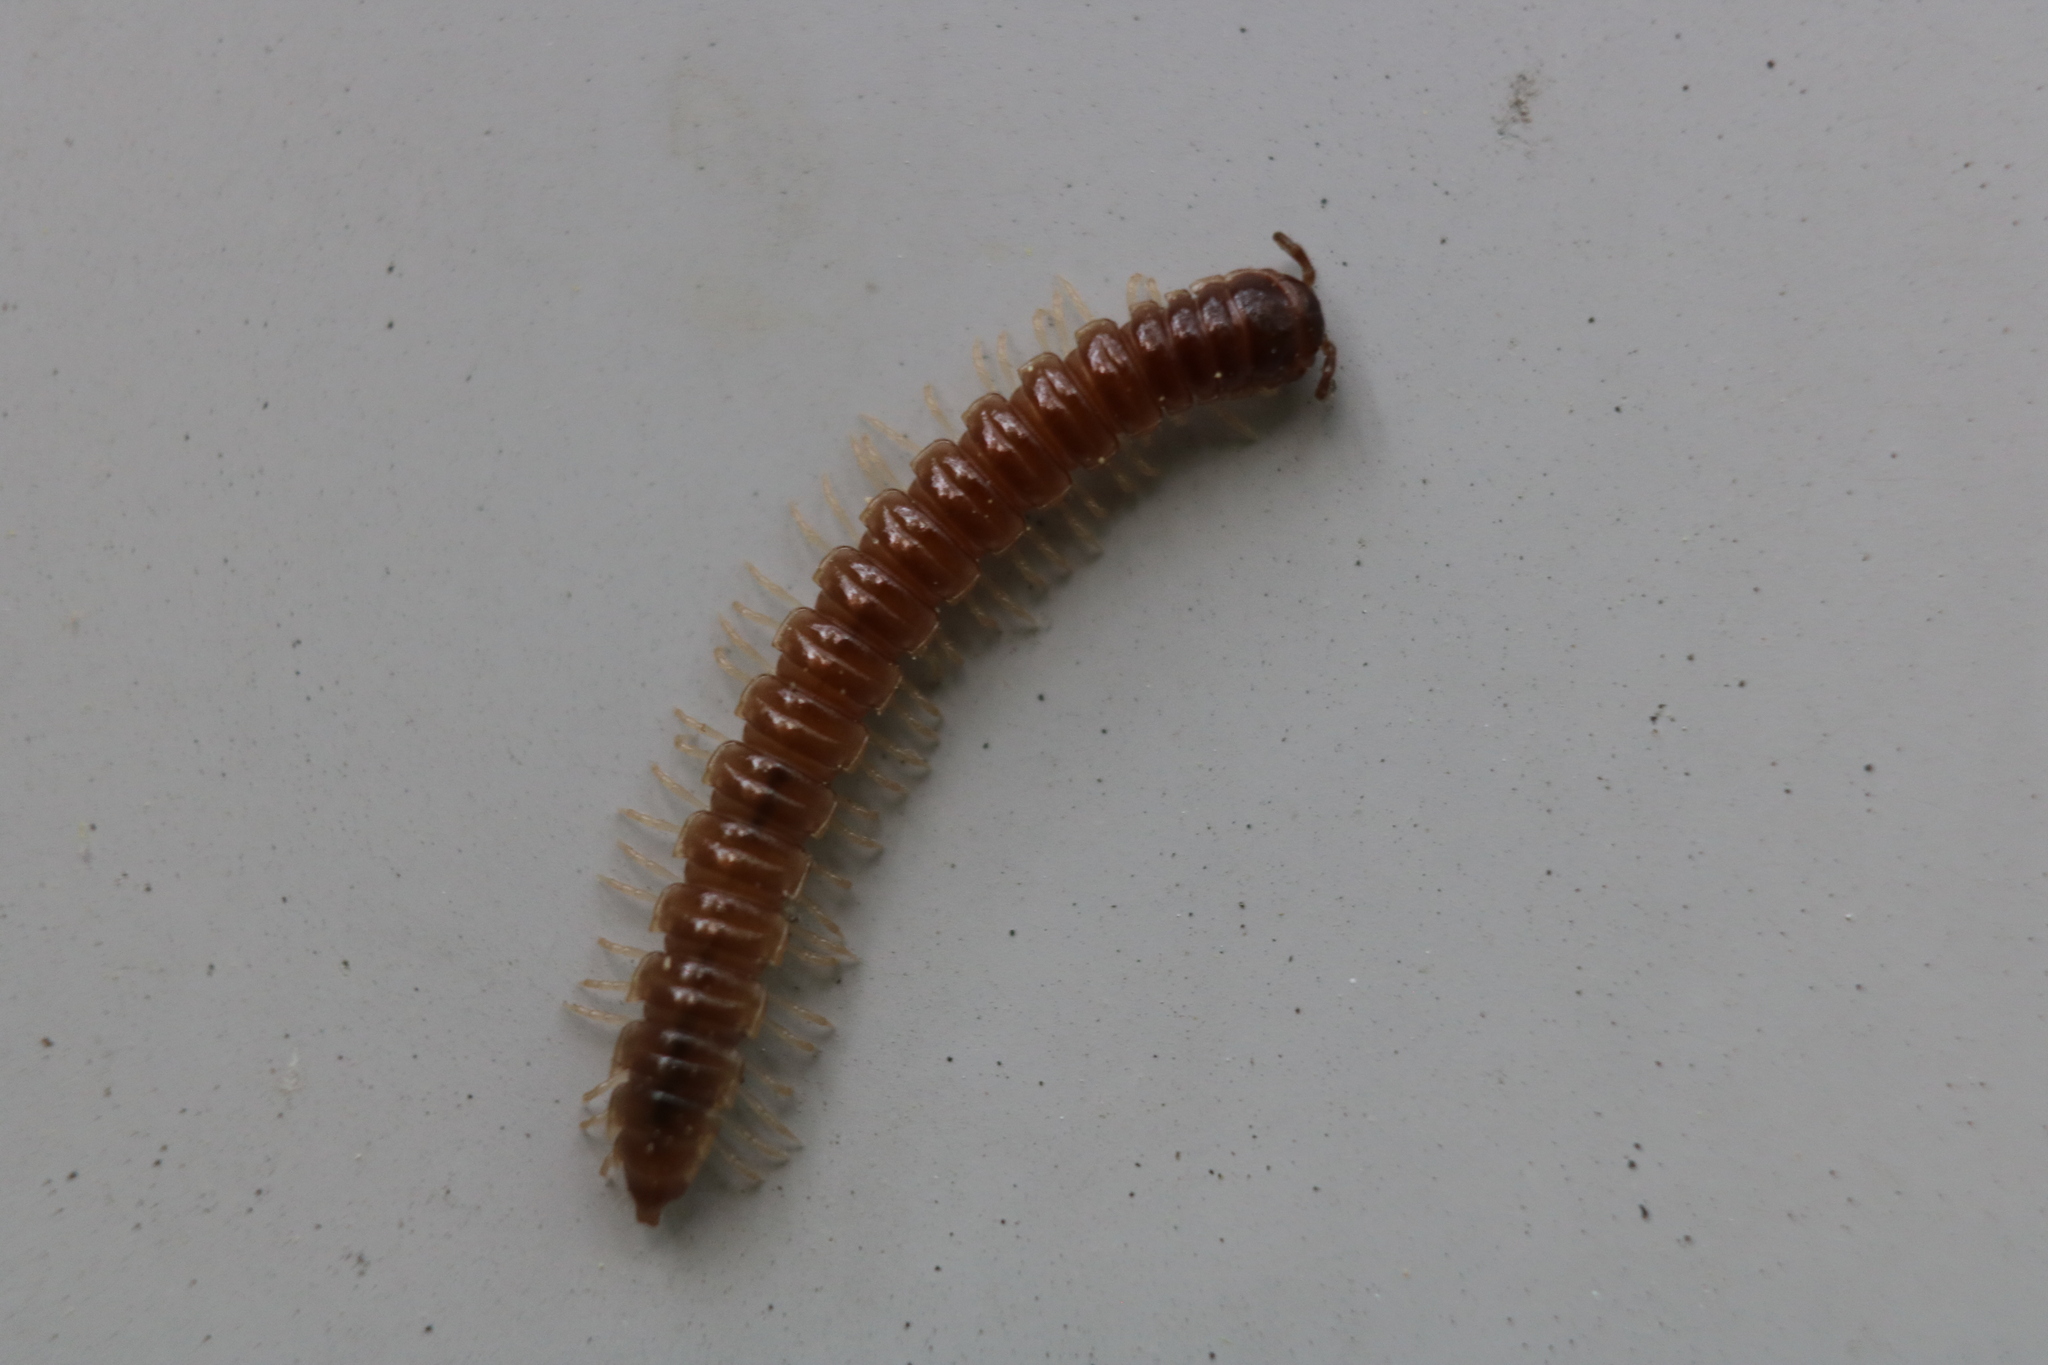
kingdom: Animalia
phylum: Arthropoda
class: Diplopoda
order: Polydesmida
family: Paradoxosomatidae
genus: Oxidus
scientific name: Oxidus gracilis
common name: Greenhouse millipede
